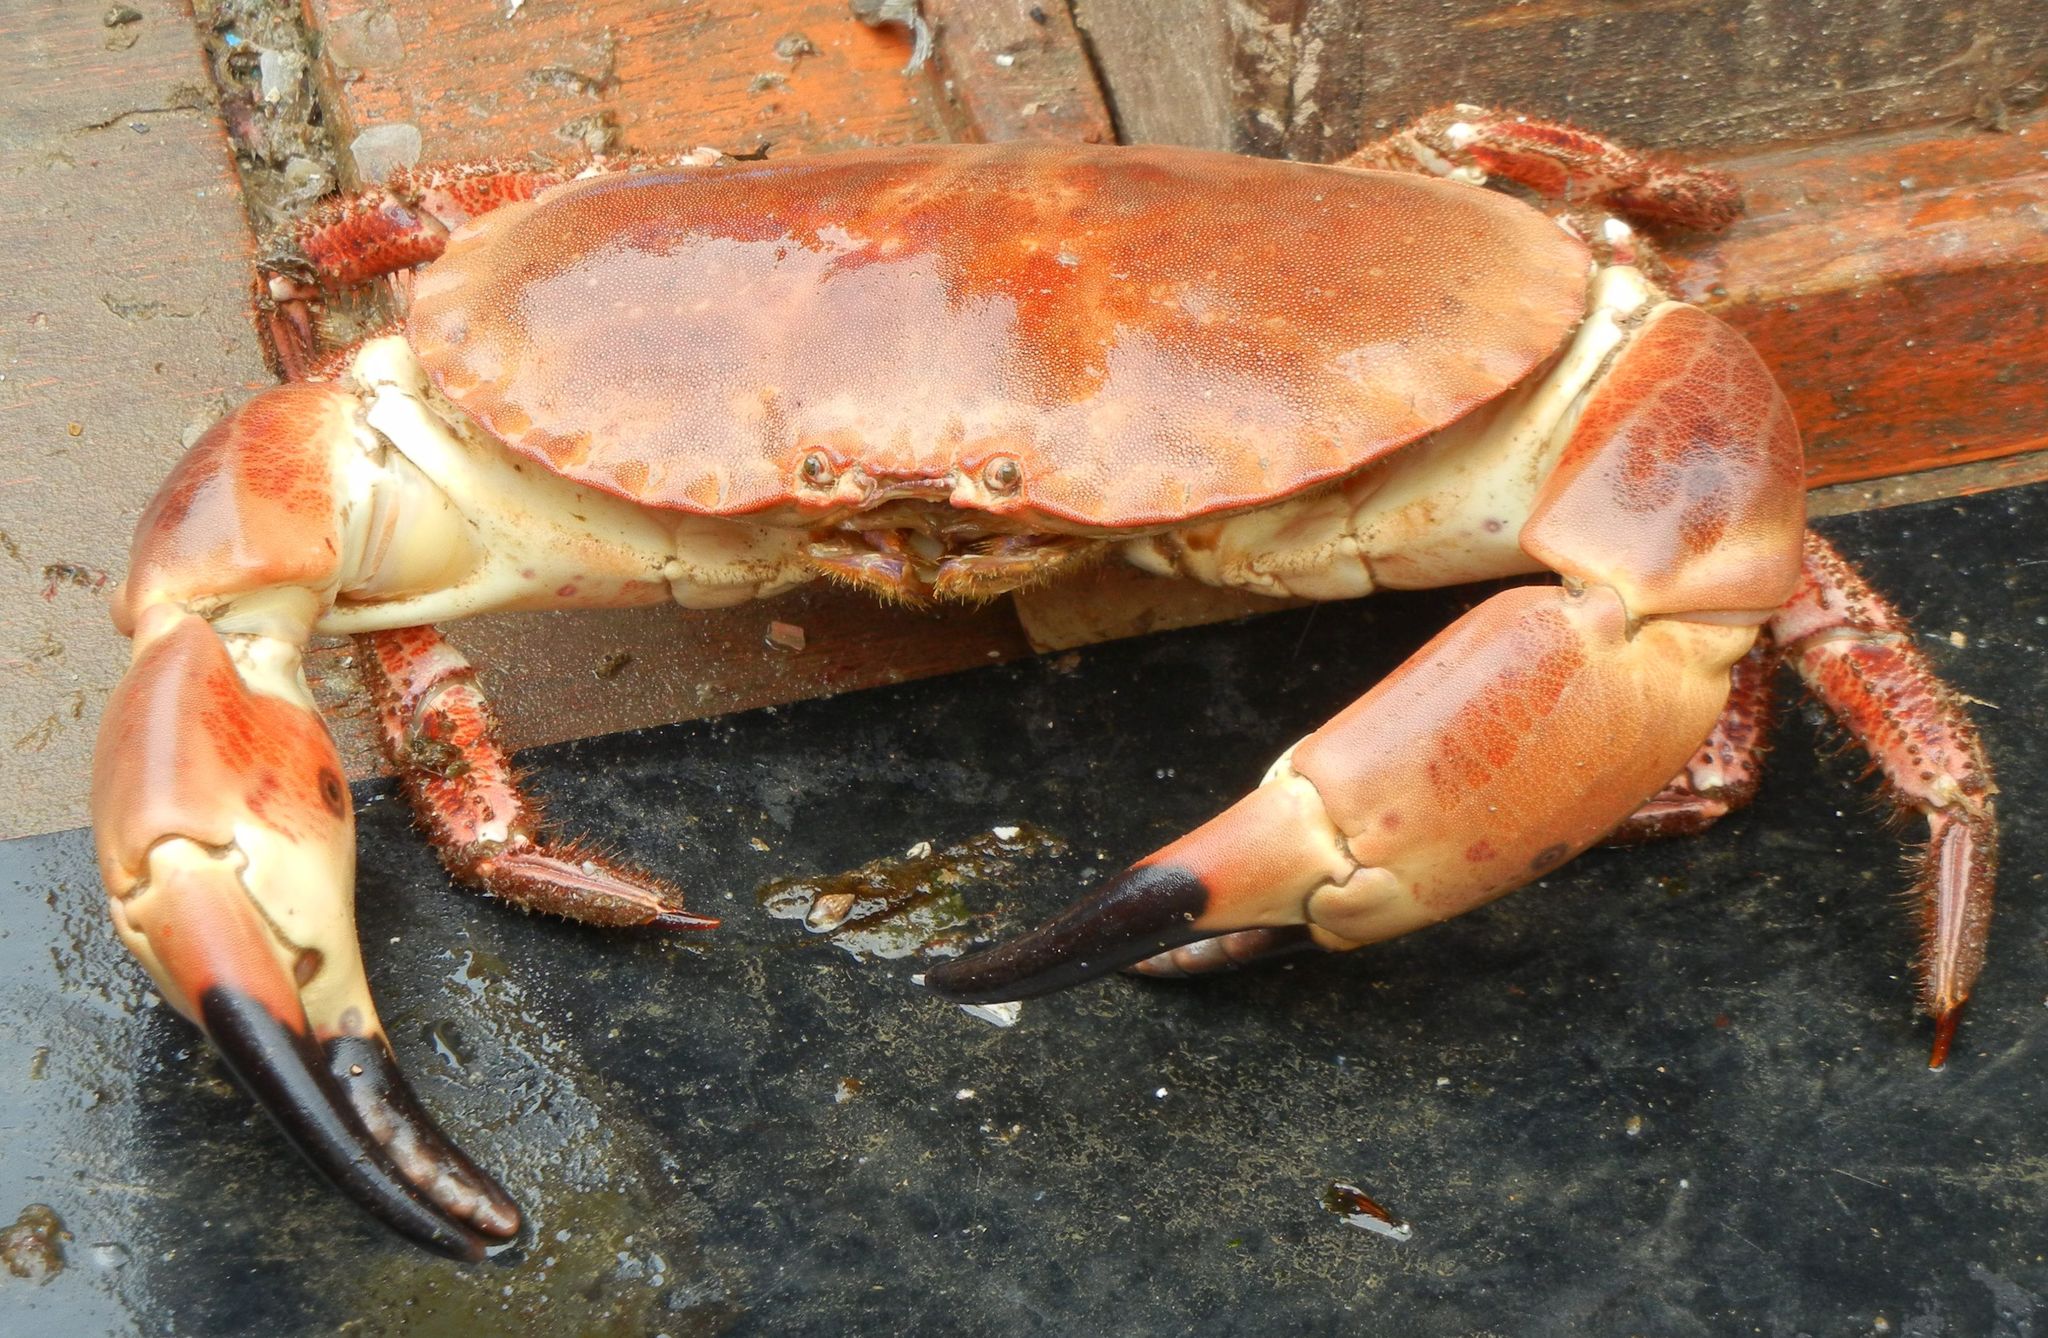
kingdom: Animalia
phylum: Arthropoda
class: Malacostraca
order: Decapoda
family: Cancridae
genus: Cancer
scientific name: Cancer pagurus
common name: Edible crab
